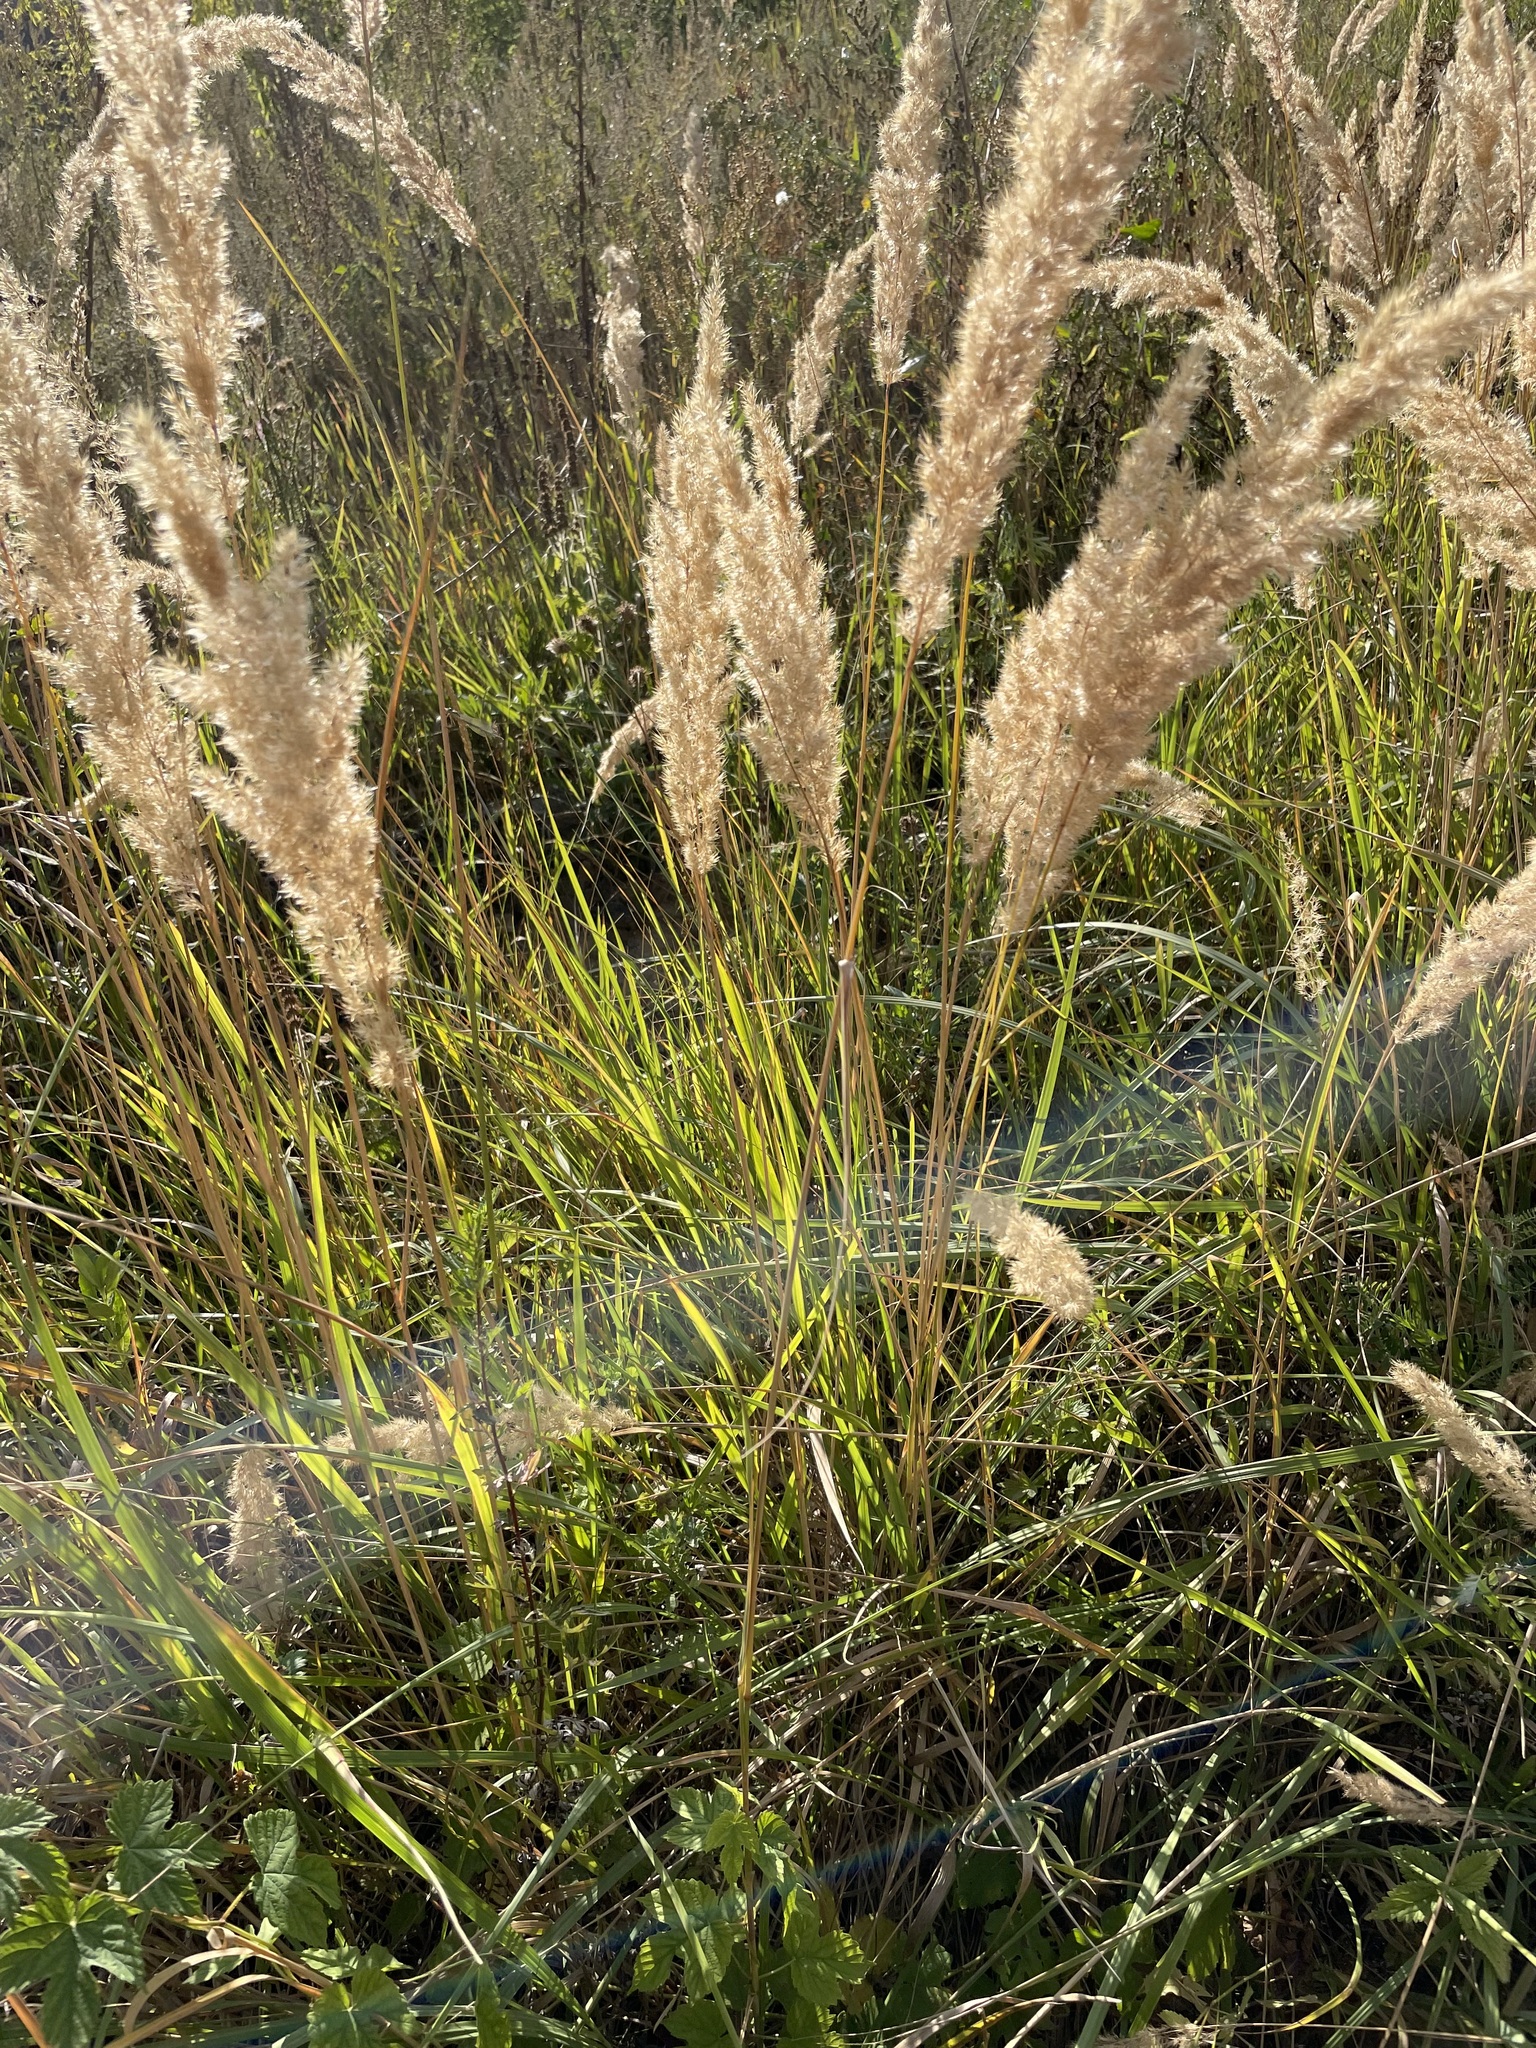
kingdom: Plantae
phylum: Tracheophyta
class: Liliopsida
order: Poales
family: Poaceae
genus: Calamagrostis
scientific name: Calamagrostis epigejos
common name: Wood small-reed
